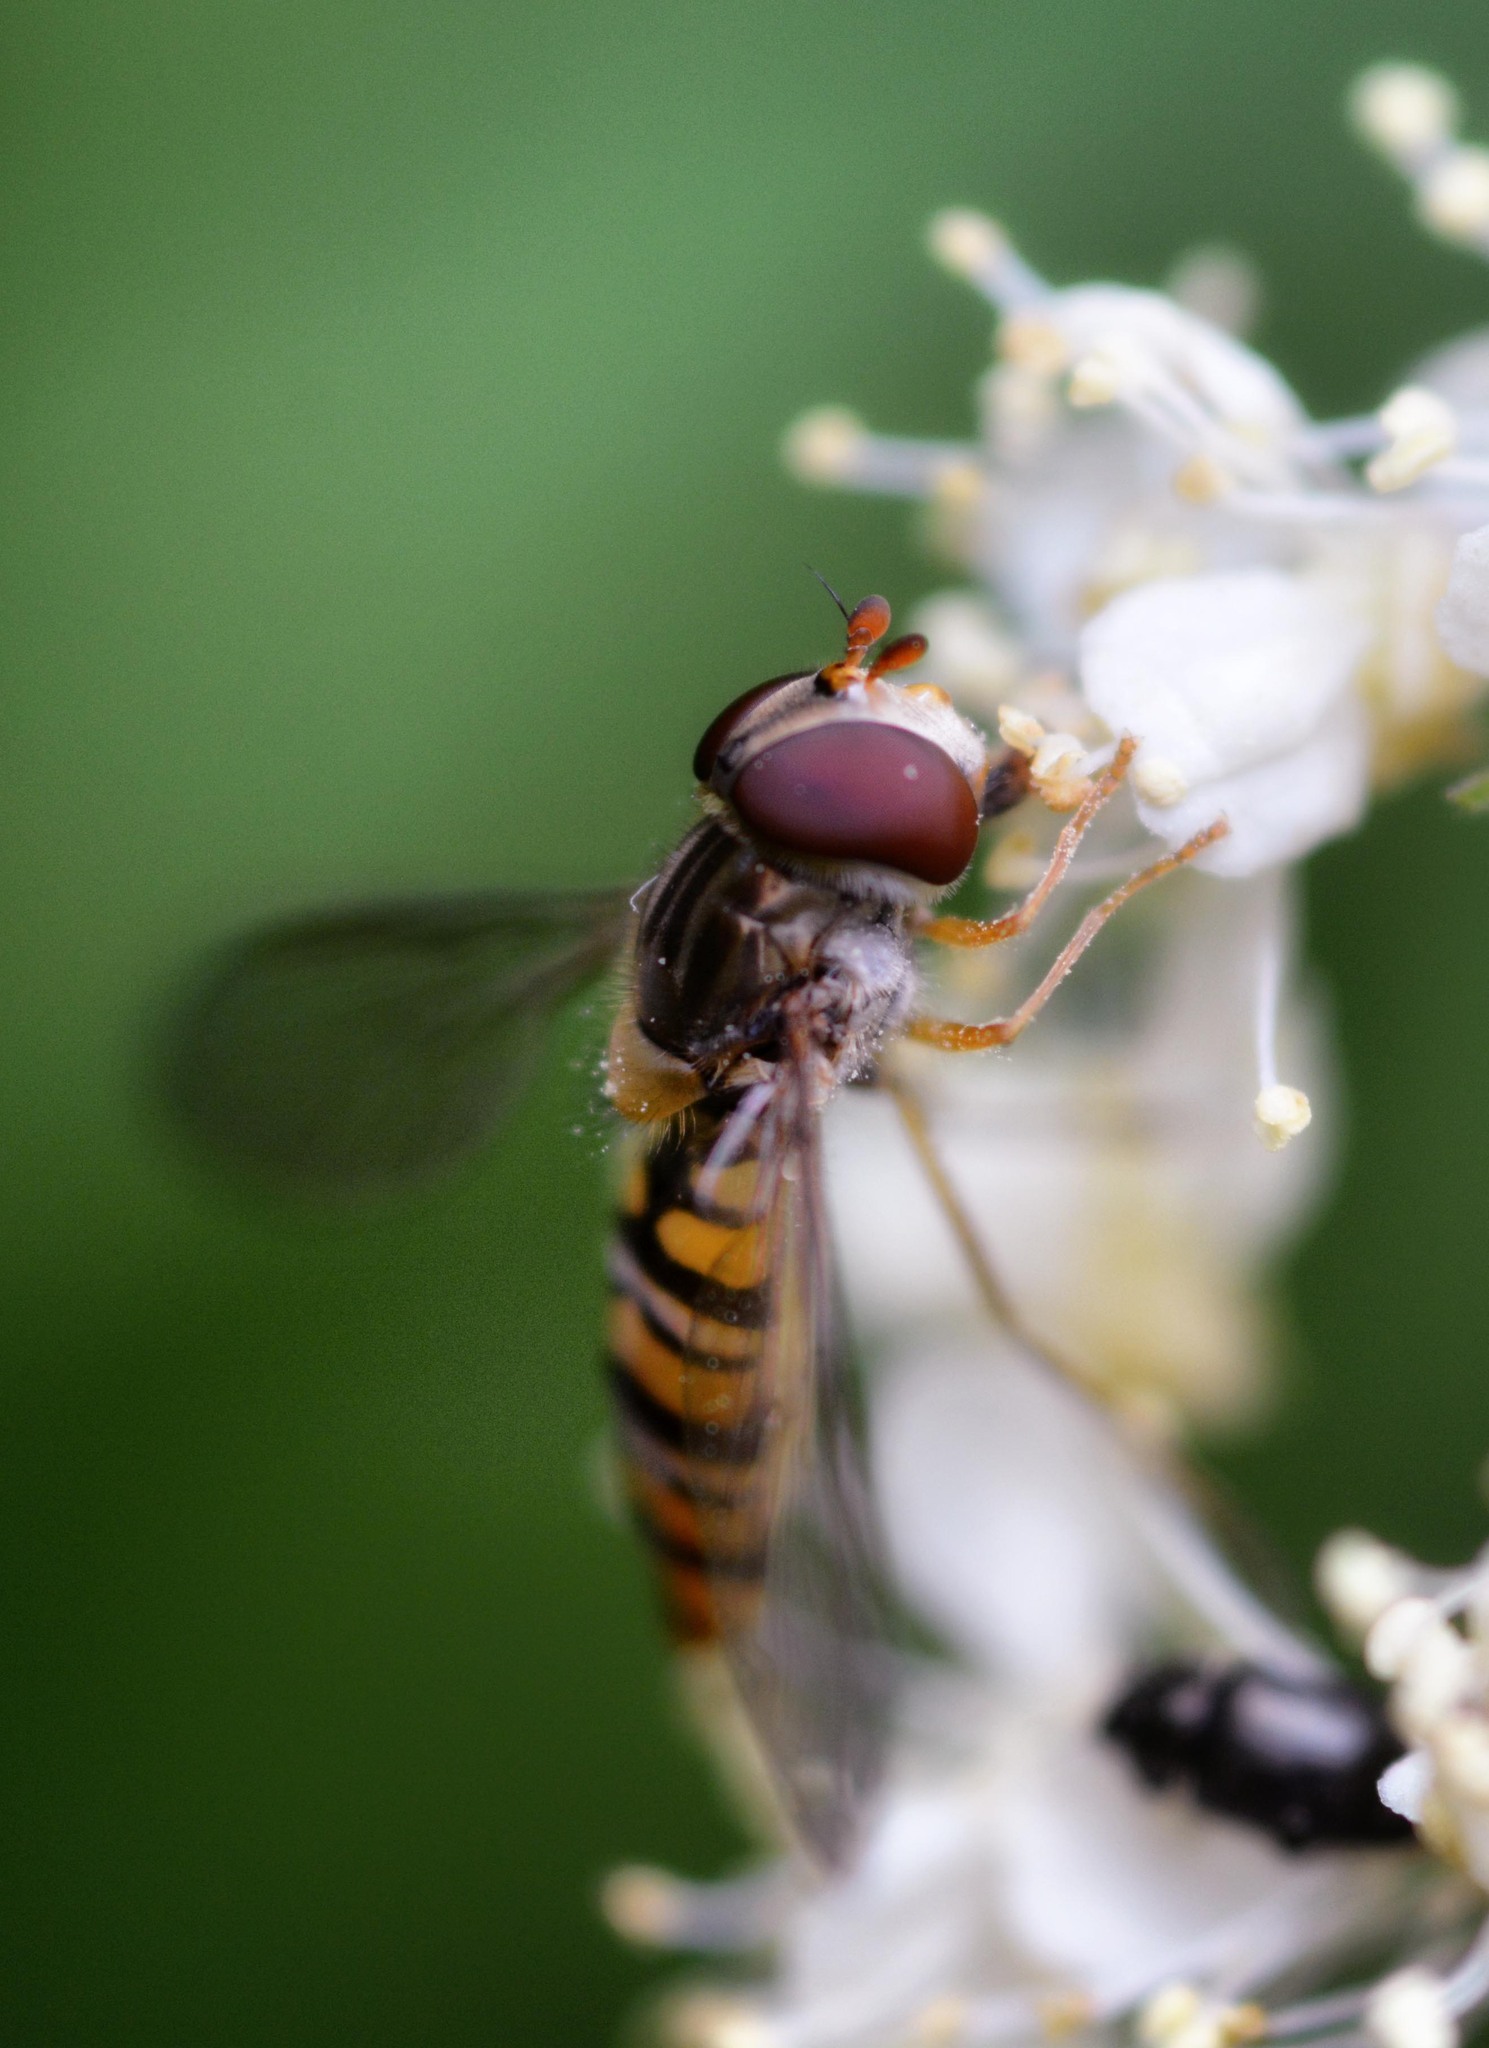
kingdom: Animalia
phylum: Arthropoda
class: Insecta
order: Diptera
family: Syrphidae
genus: Episyrphus
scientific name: Episyrphus balteatus
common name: Marmalade hoverfly
